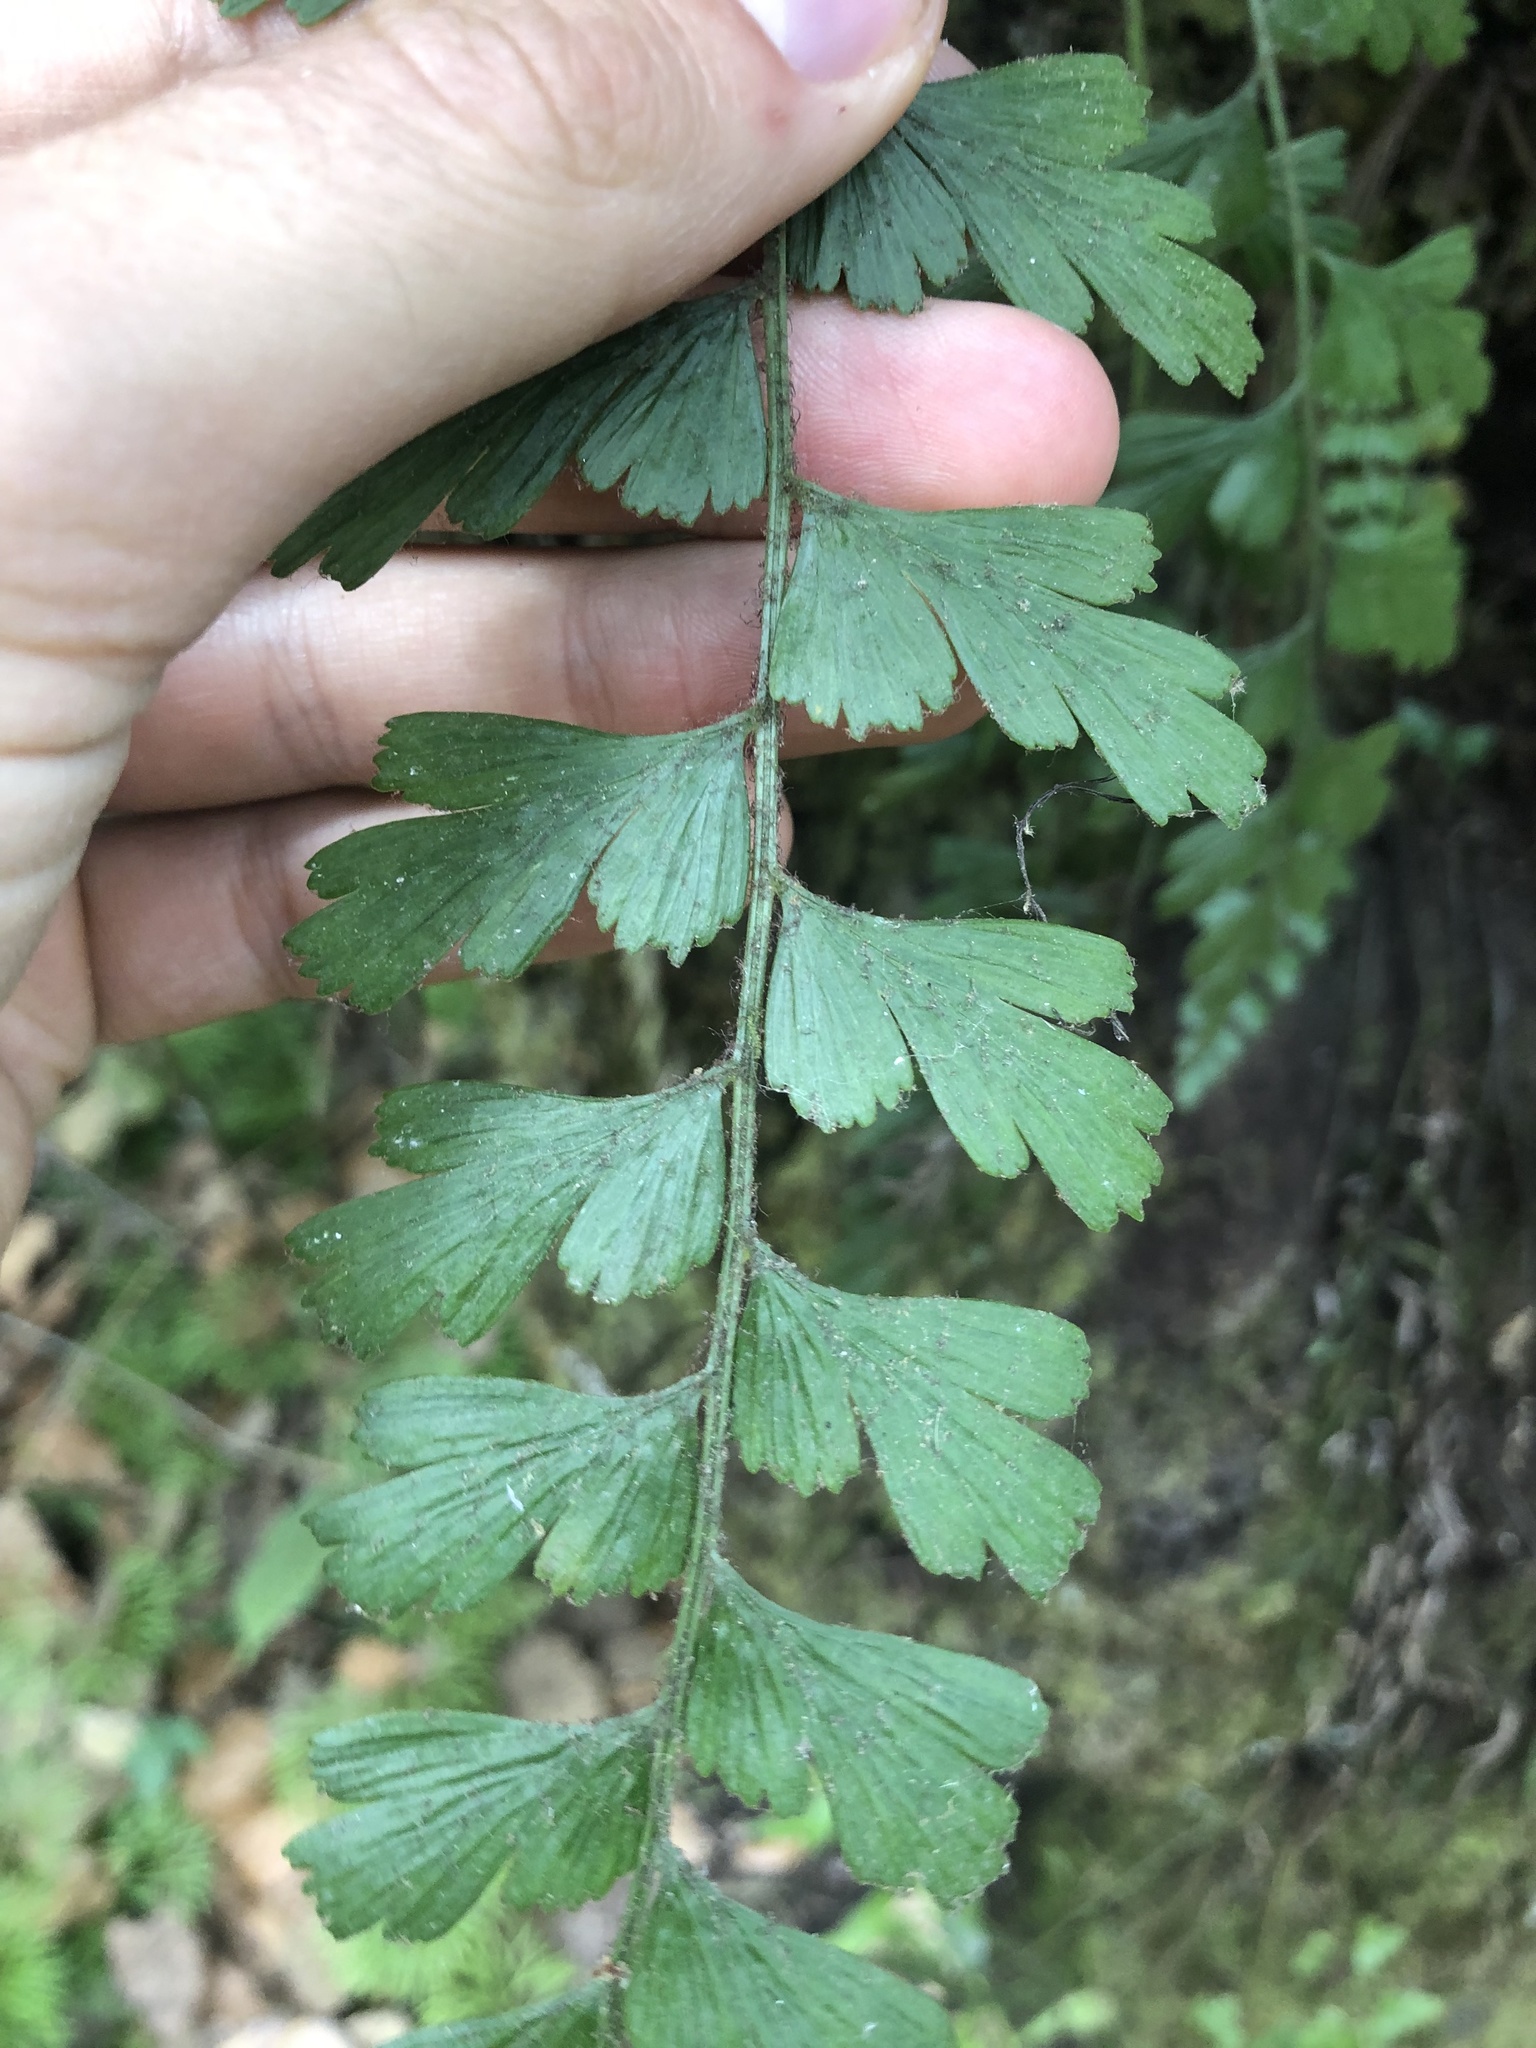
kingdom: Plantae
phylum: Tracheophyta
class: Polypodiopsida
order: Polypodiales
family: Aspleniaceae
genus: Asplenium
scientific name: Asplenium praemorsum
